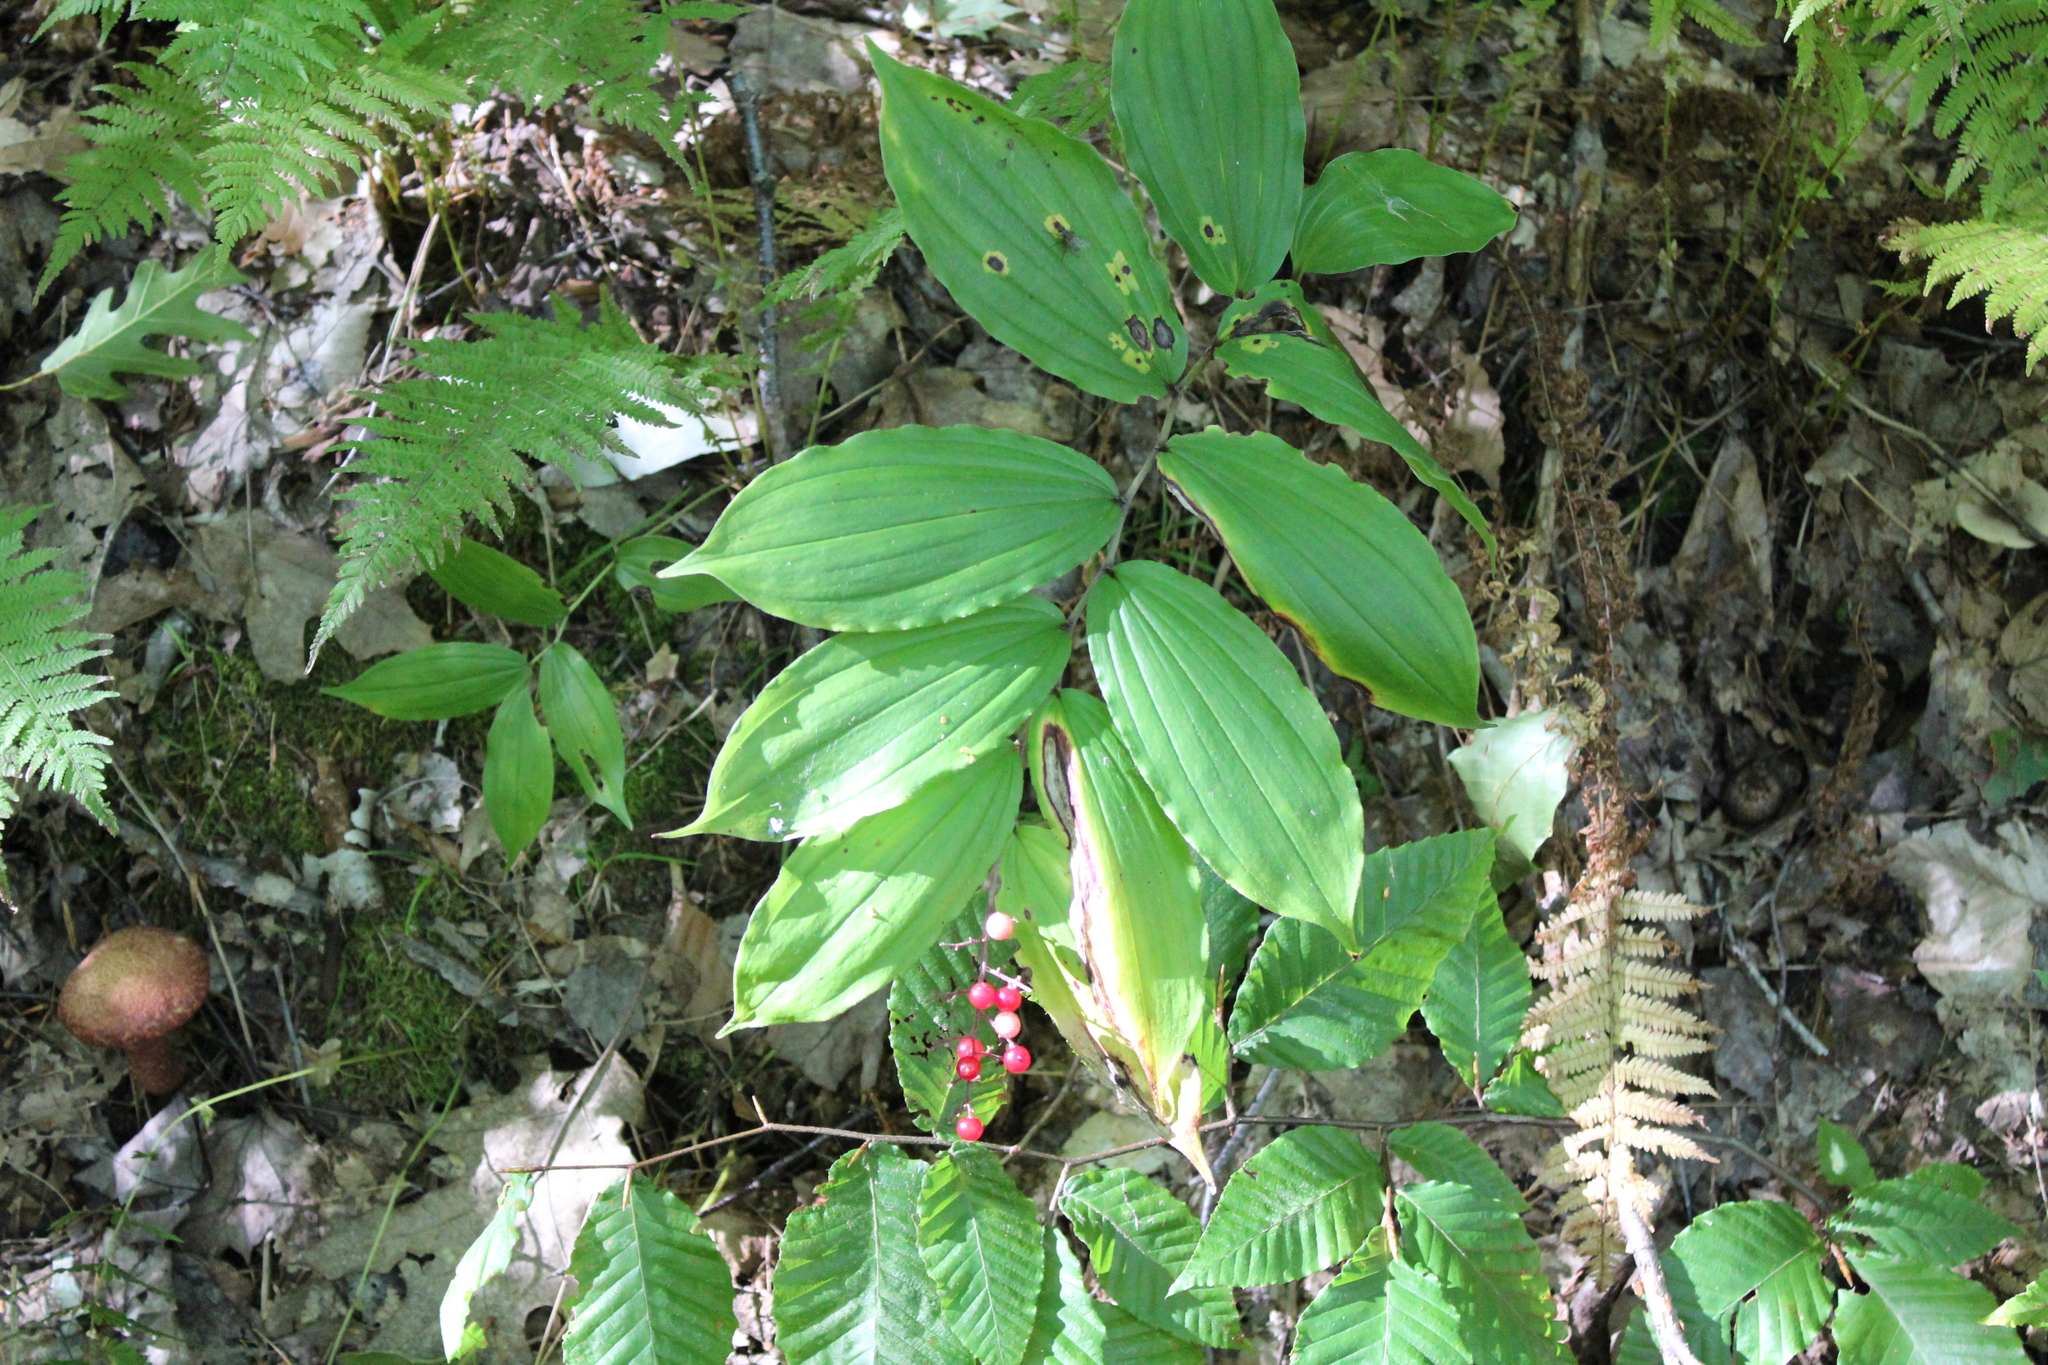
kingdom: Plantae
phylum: Tracheophyta
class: Liliopsida
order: Asparagales
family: Asparagaceae
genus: Maianthemum
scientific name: Maianthemum racemosum
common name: False spikenard
